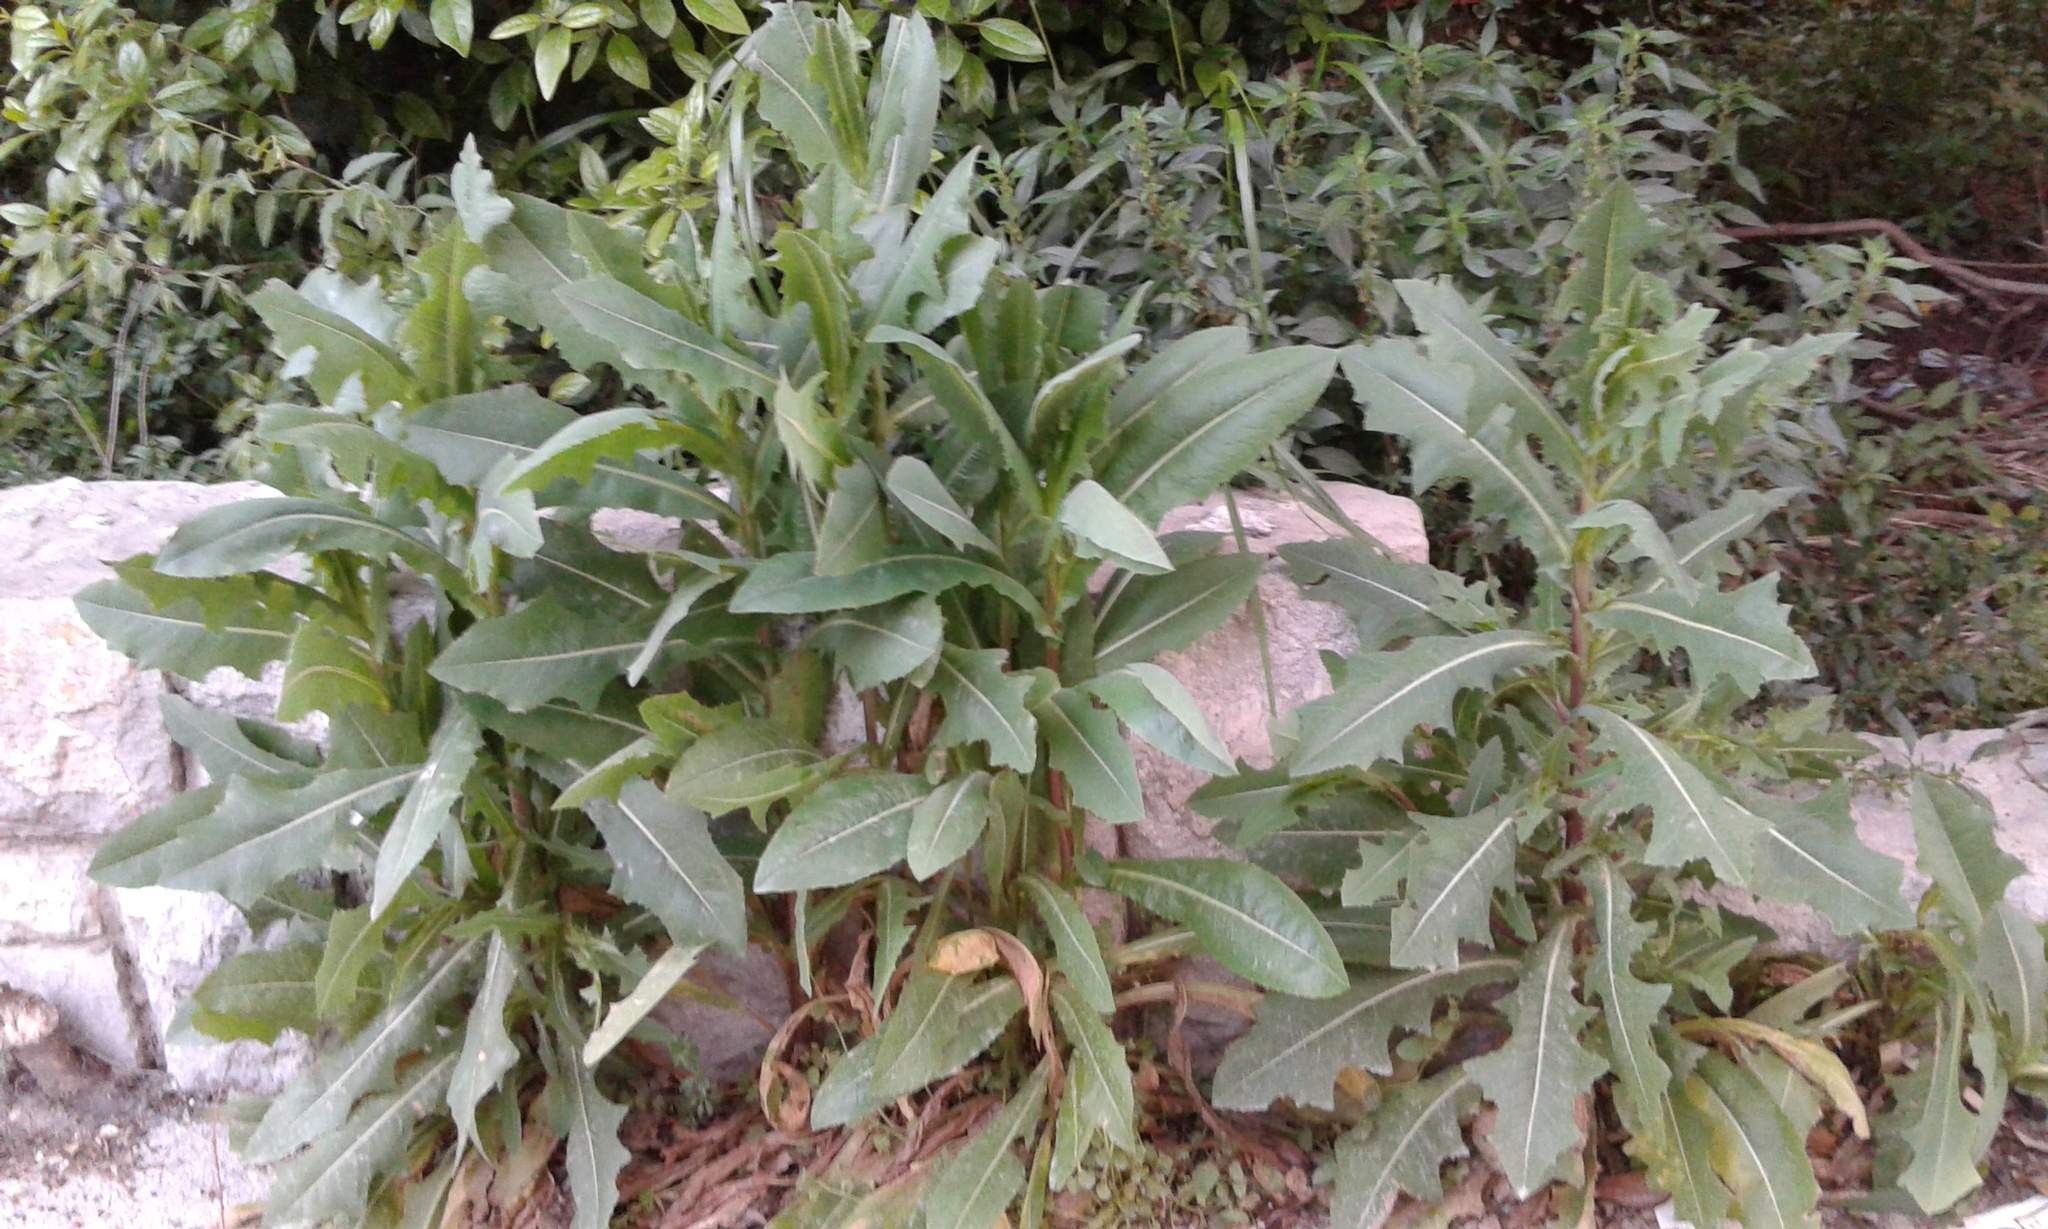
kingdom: Plantae
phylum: Tracheophyta
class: Magnoliopsida
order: Asterales
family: Asteraceae
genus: Lactuca
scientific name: Lactuca serriola
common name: Prickly lettuce
